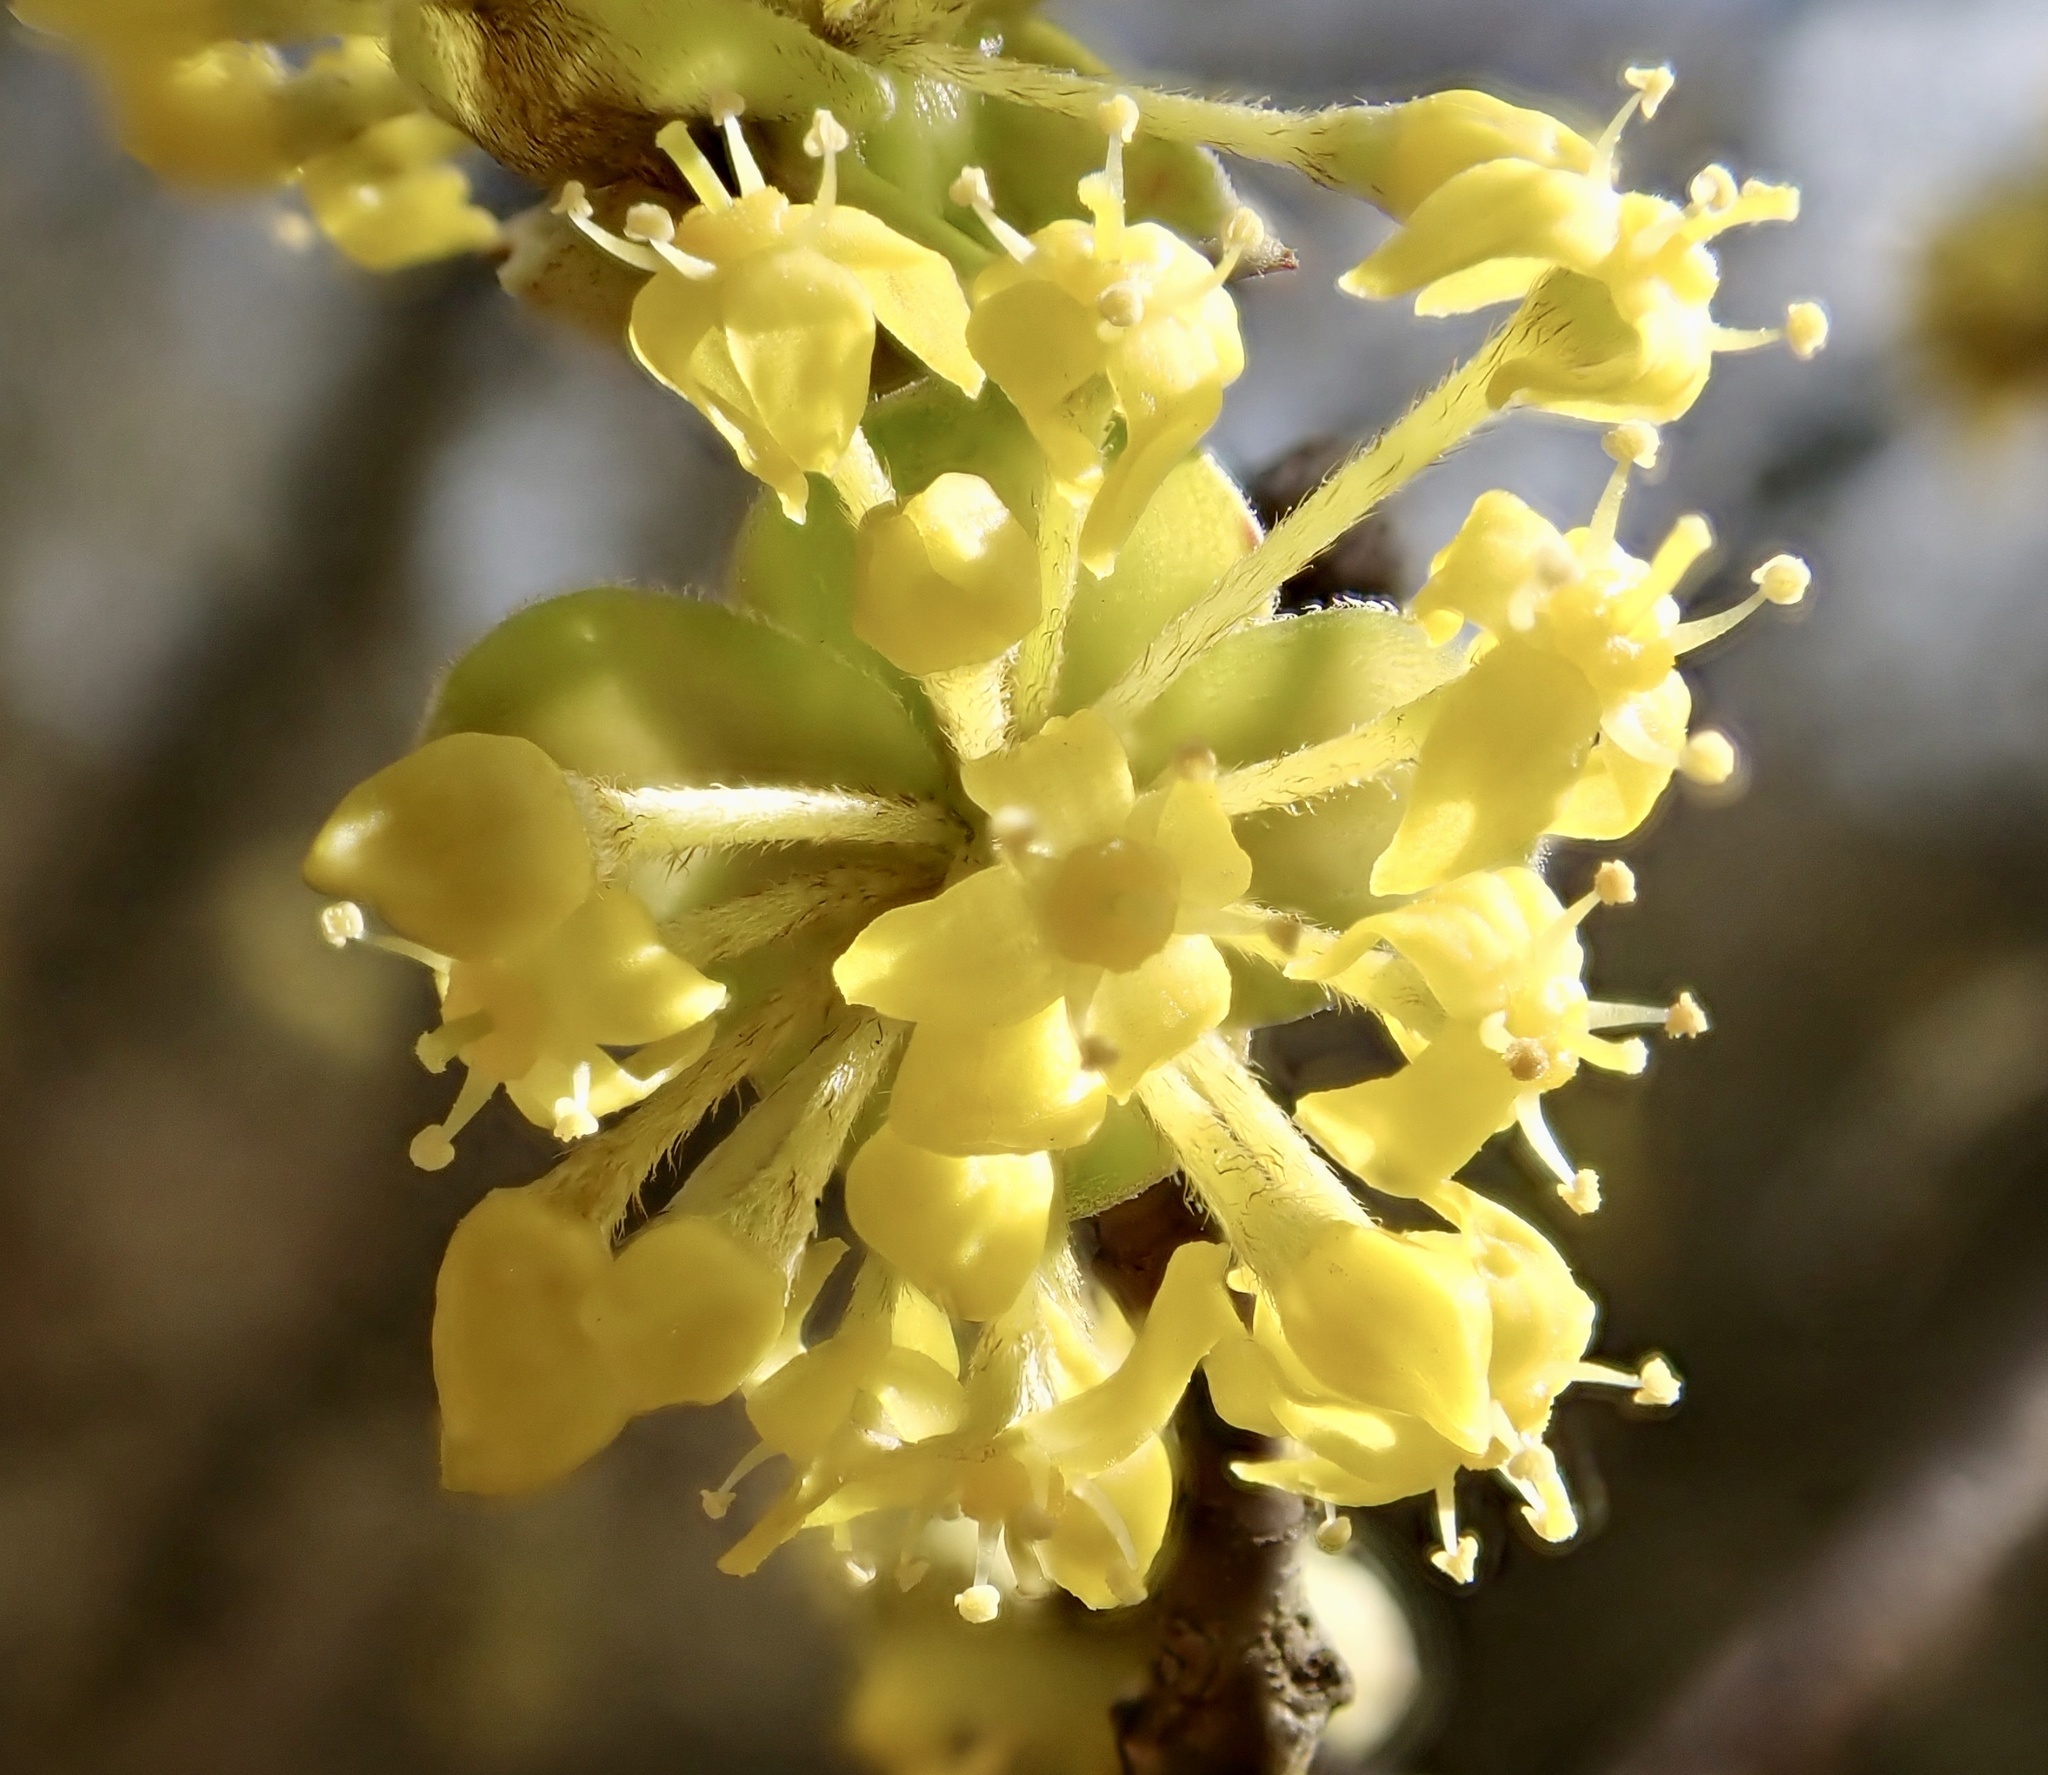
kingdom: Plantae
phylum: Tracheophyta
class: Magnoliopsida
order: Cornales
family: Cornaceae
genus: Cornus
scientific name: Cornus mas
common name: Cornelian-cherry
